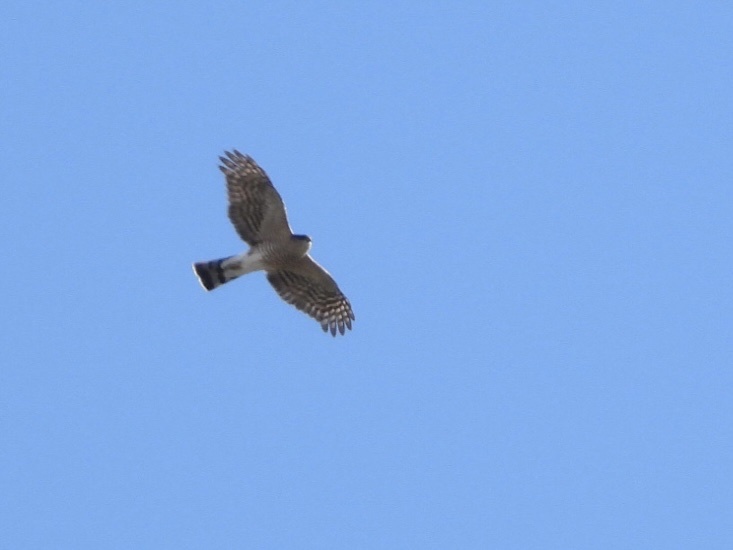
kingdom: Animalia
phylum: Chordata
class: Aves
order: Accipitriformes
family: Accipitridae
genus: Accipiter
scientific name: Accipiter striatus
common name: Sharp-shinned hawk
